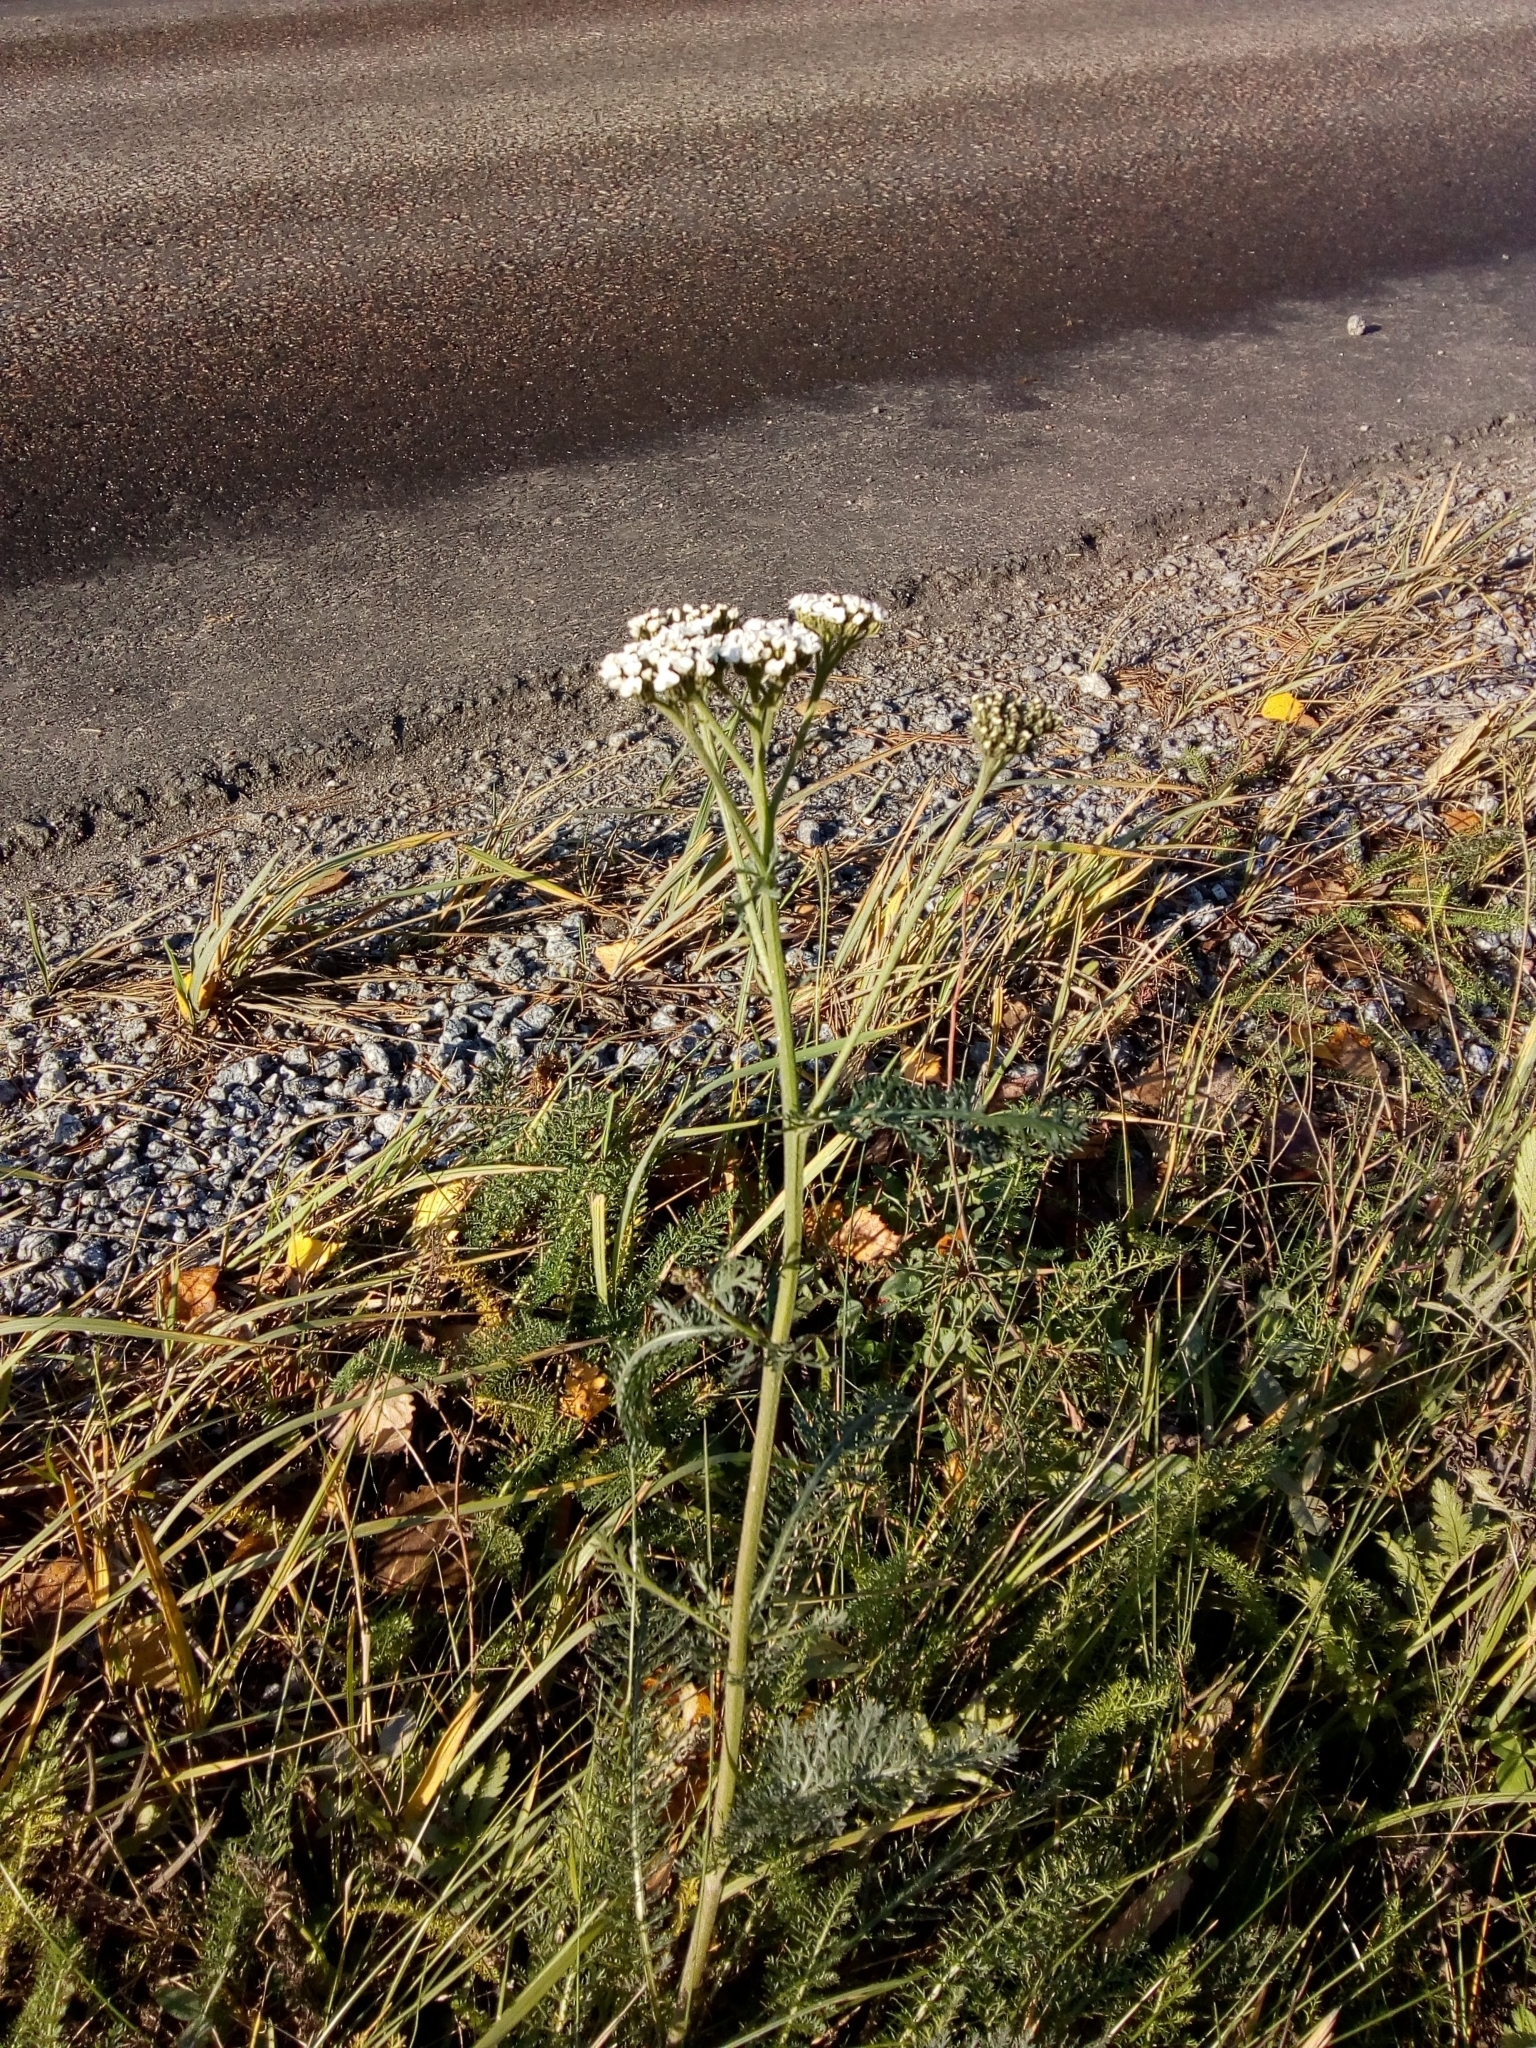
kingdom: Plantae
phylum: Tracheophyta
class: Magnoliopsida
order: Asterales
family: Asteraceae
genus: Achillea
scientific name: Achillea millefolium
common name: Yarrow
